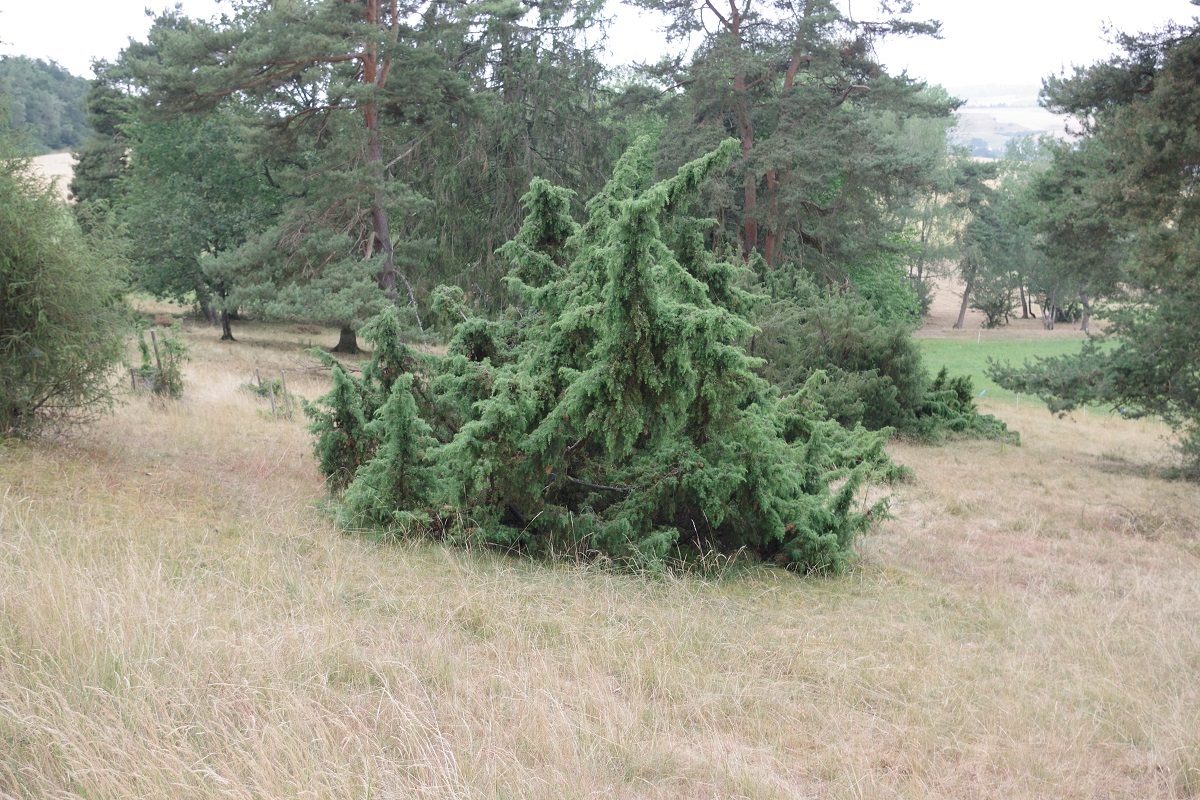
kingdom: Plantae
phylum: Tracheophyta
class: Pinopsida
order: Pinales
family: Cupressaceae
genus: Juniperus
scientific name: Juniperus communis
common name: Common juniper
